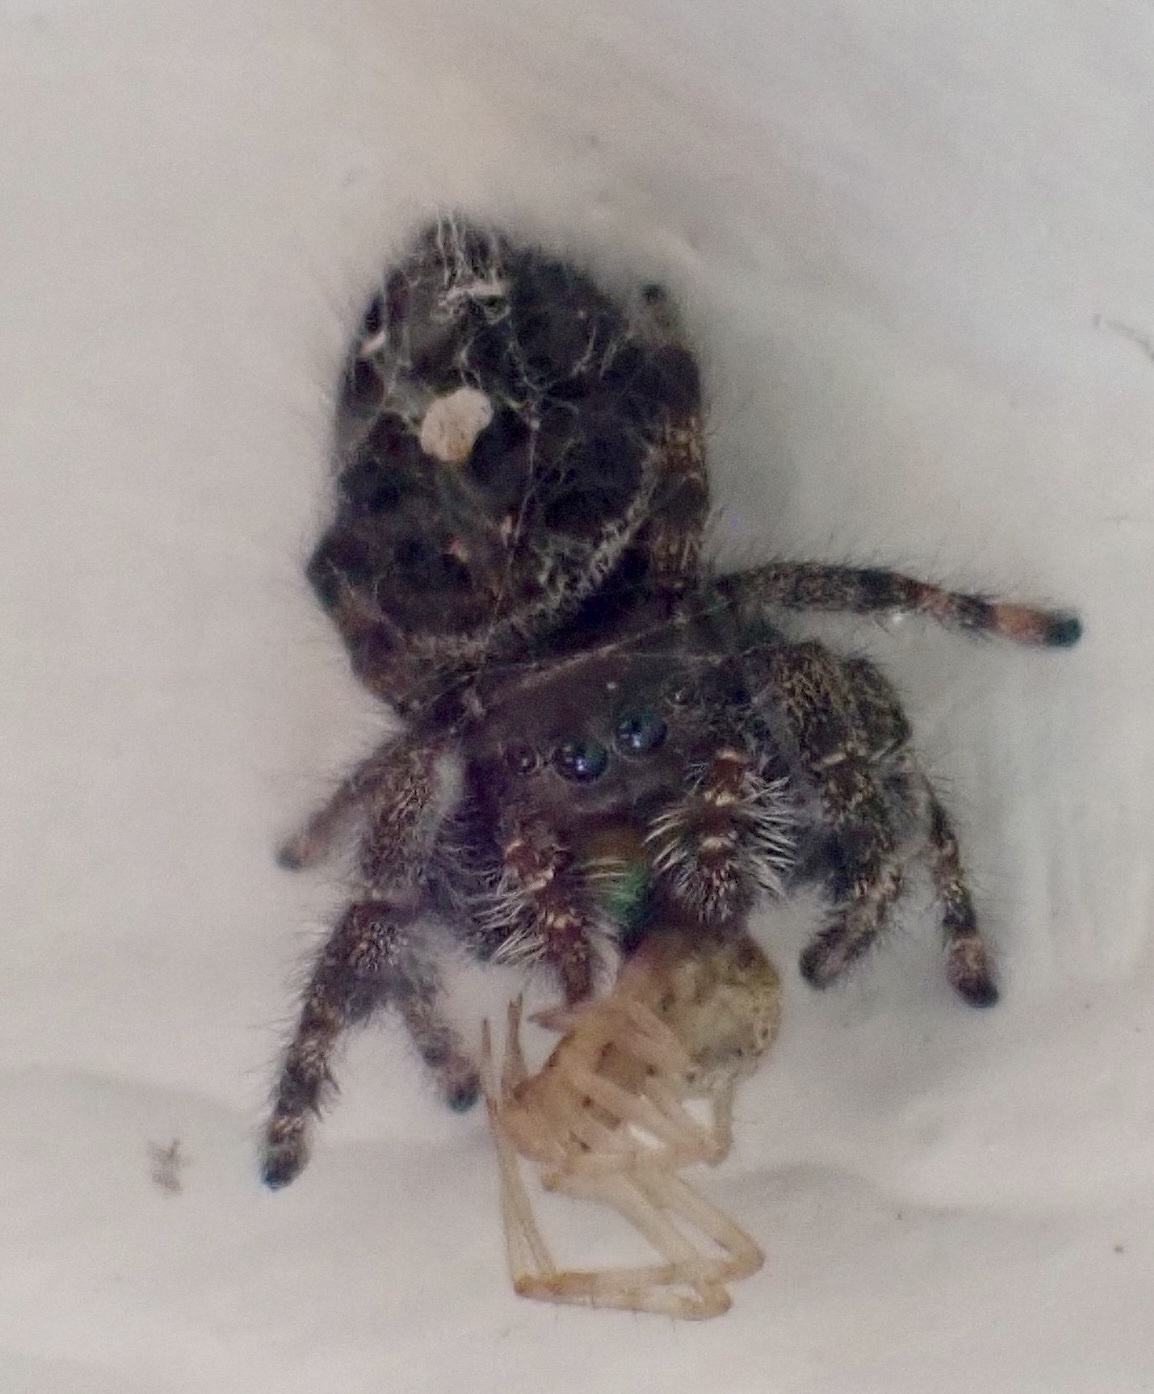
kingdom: Animalia
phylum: Arthropoda
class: Arachnida
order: Araneae
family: Salticidae
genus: Phidippus
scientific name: Phidippus audax
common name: Bold jumper
